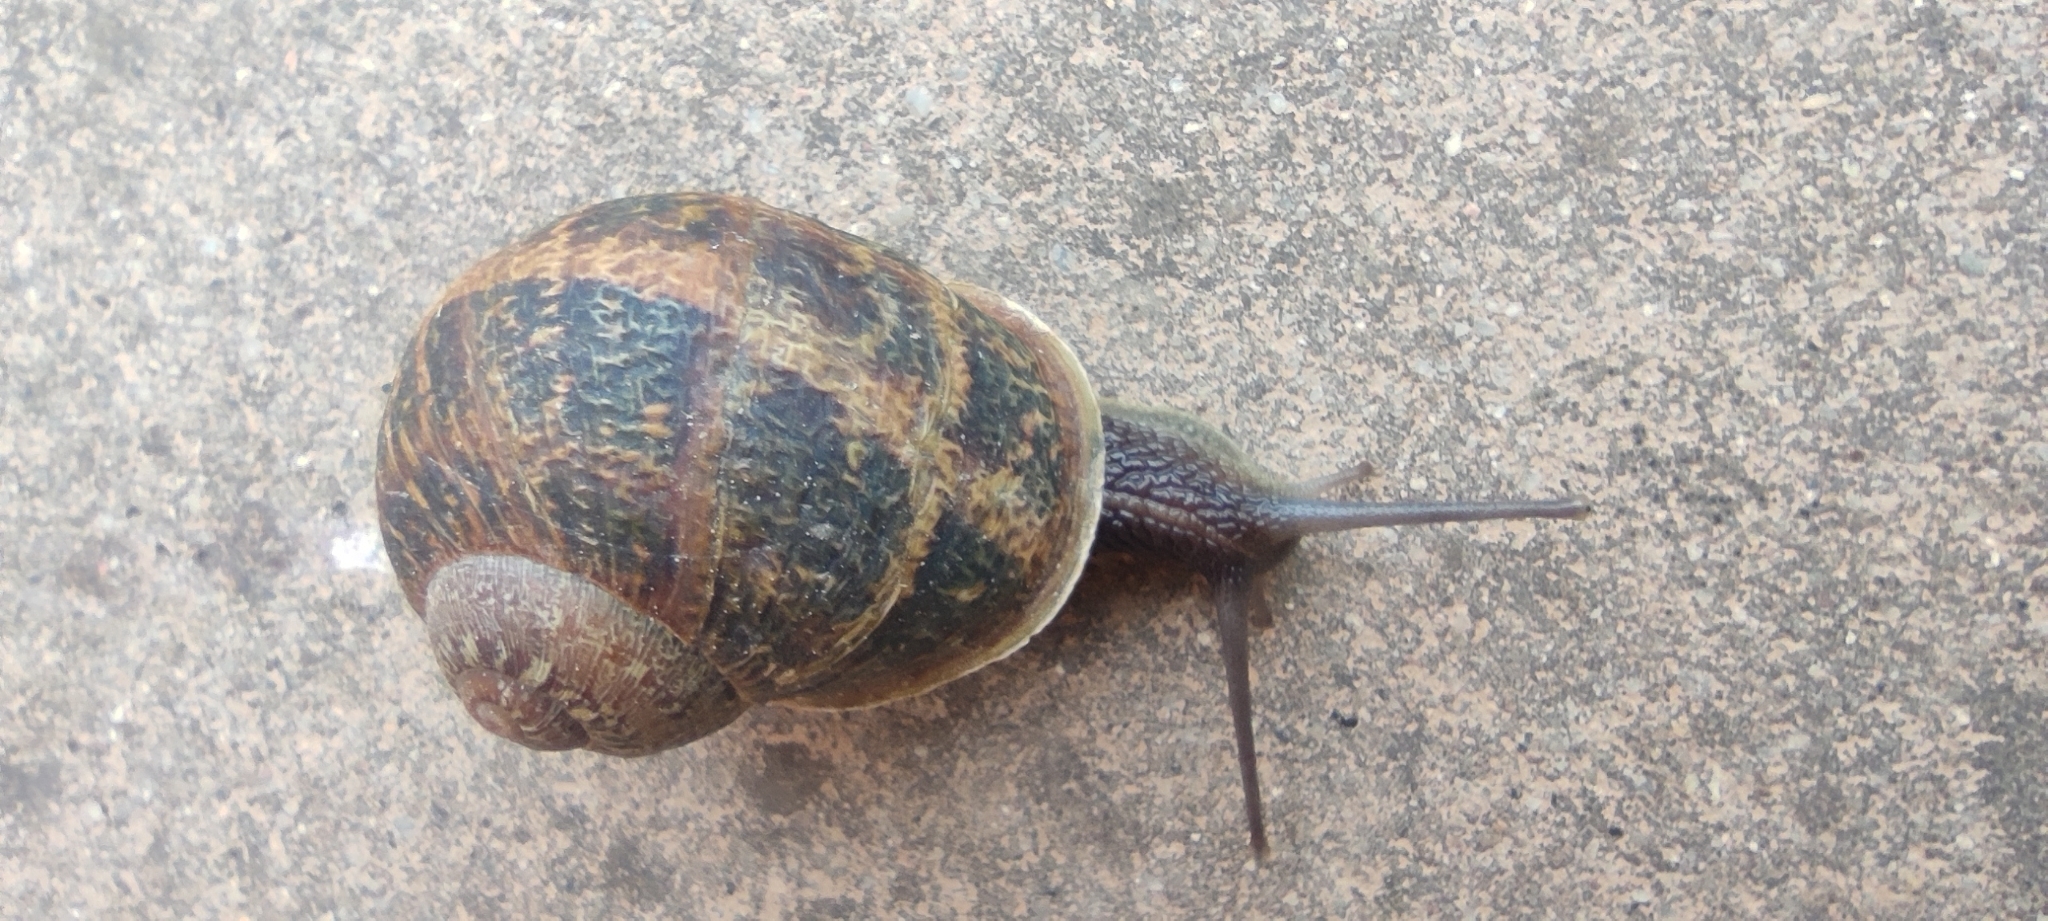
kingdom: Animalia
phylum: Mollusca
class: Gastropoda
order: Stylommatophora
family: Helicidae
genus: Cornu
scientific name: Cornu aspersum
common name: Brown garden snail
